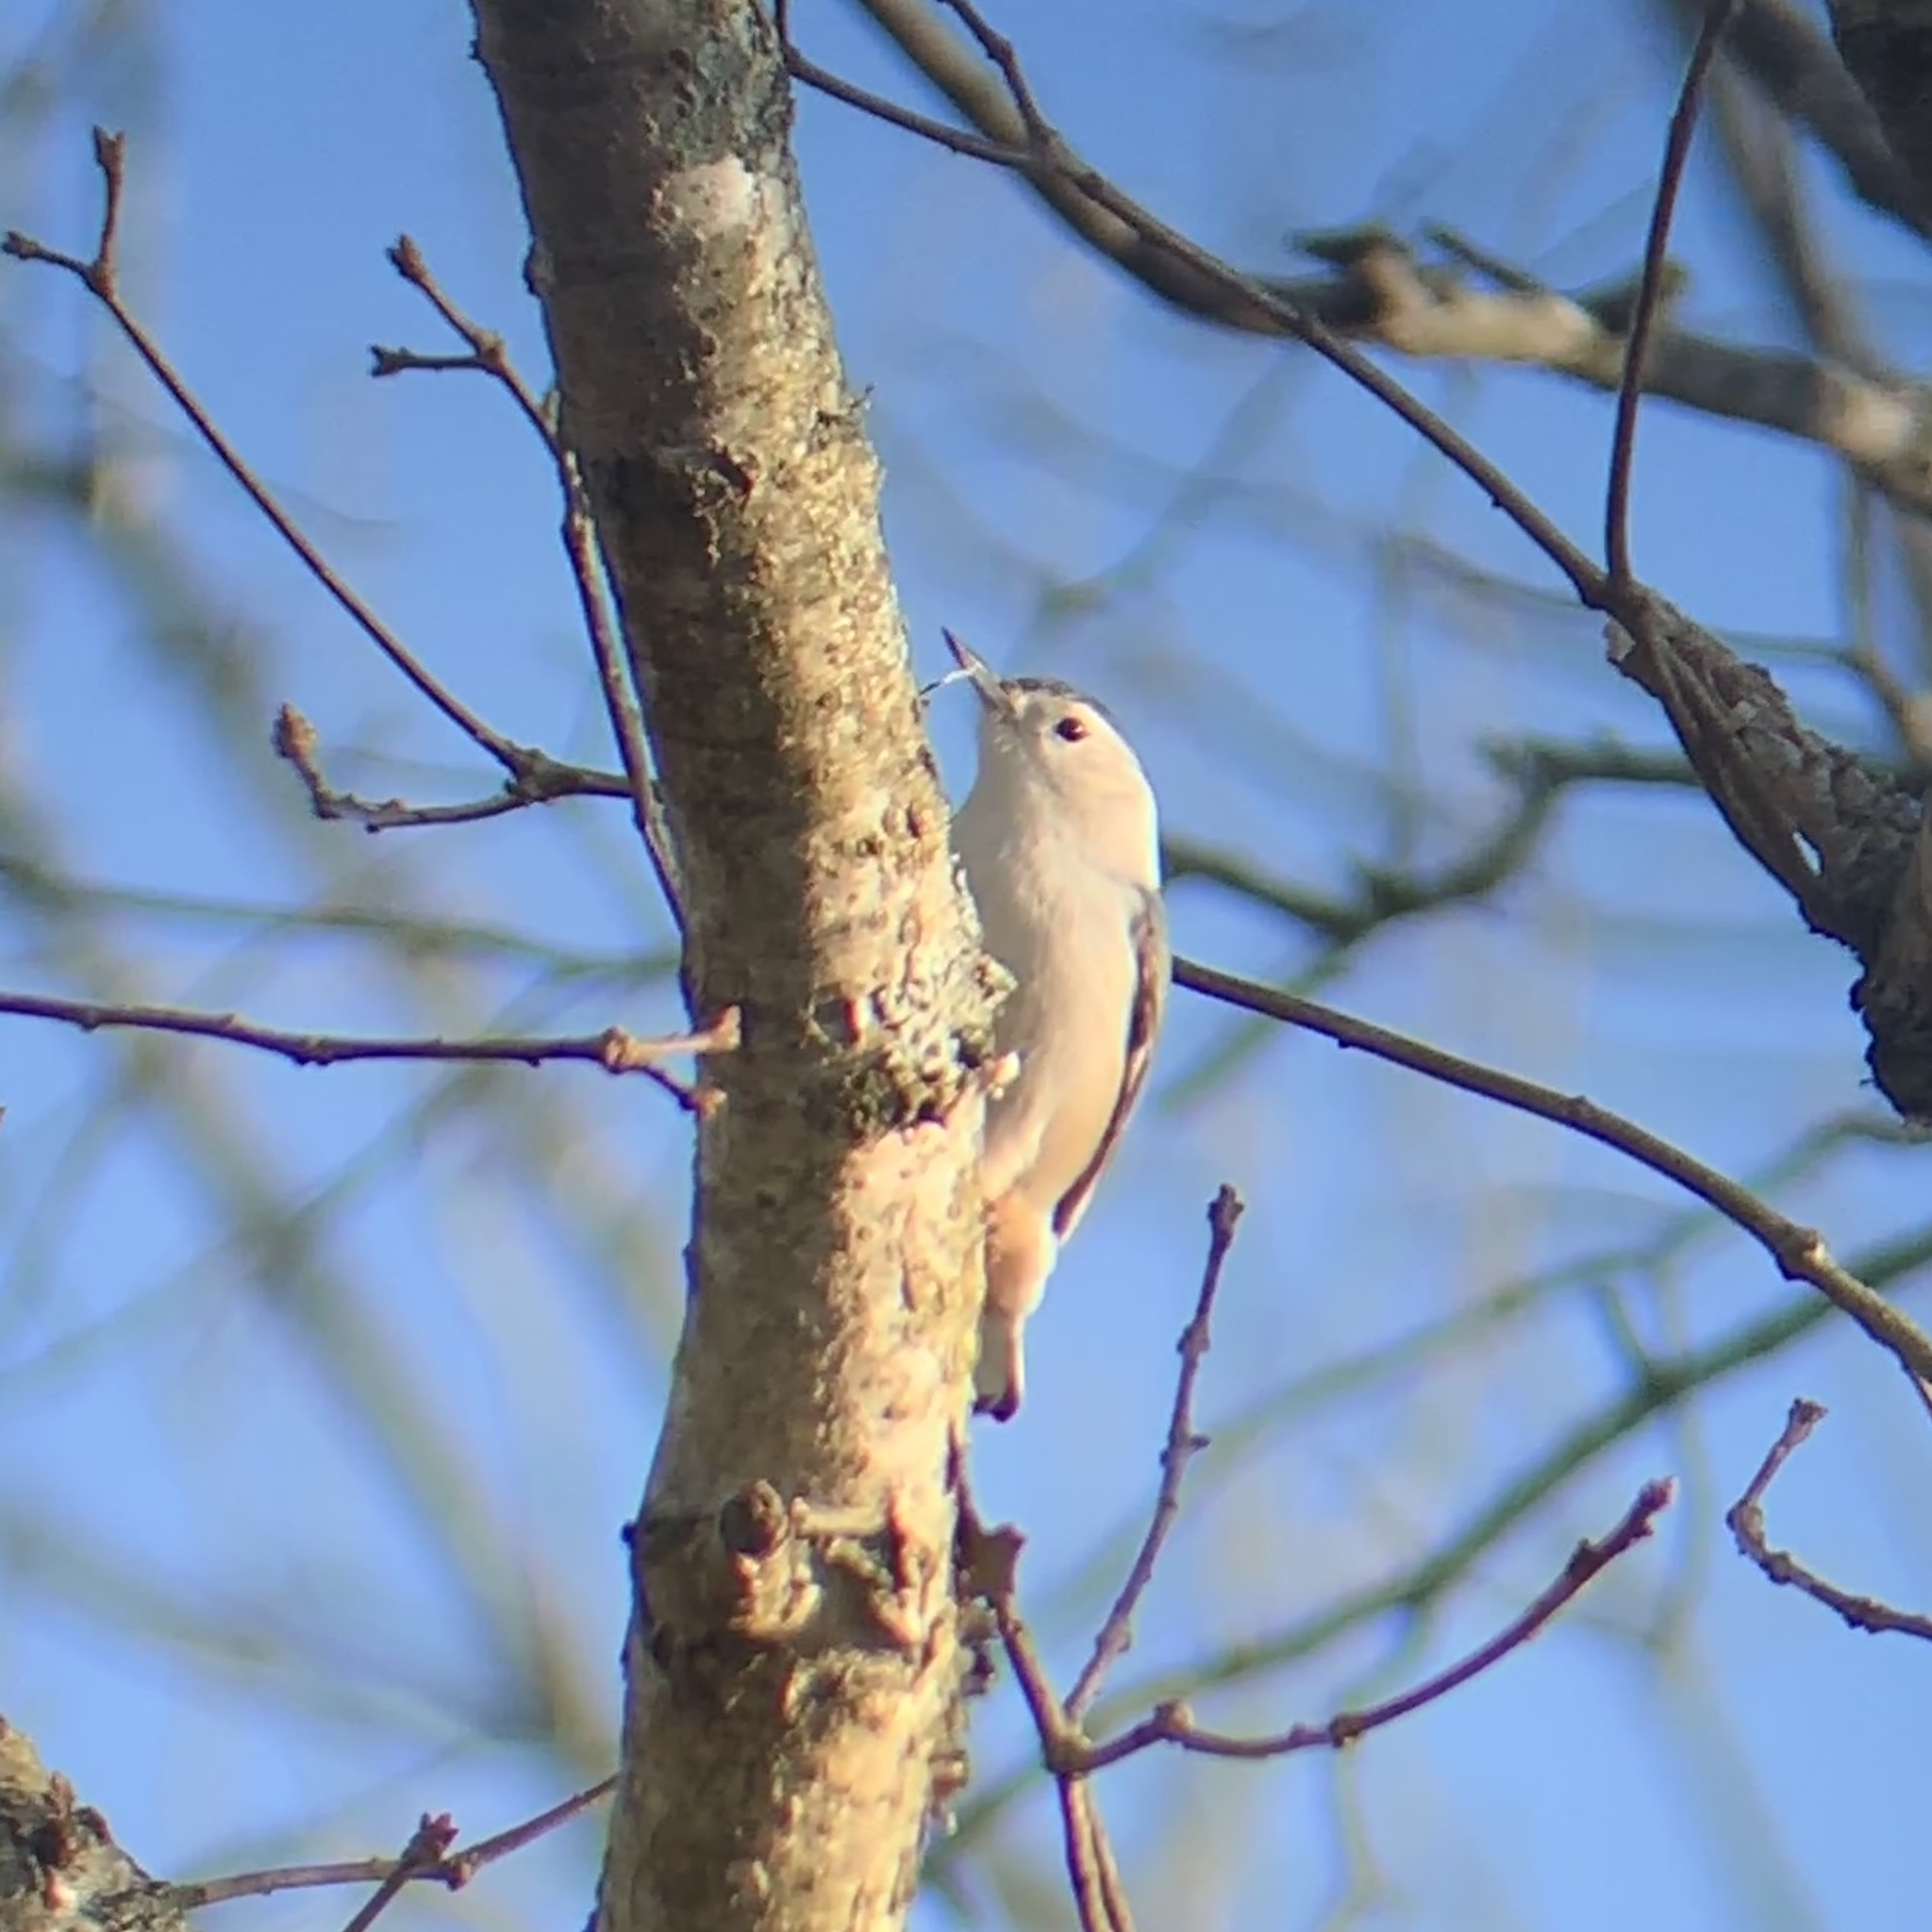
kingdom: Animalia
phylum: Chordata
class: Aves
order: Passeriformes
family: Sittidae
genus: Sitta
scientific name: Sitta carolinensis
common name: White-breasted nuthatch
